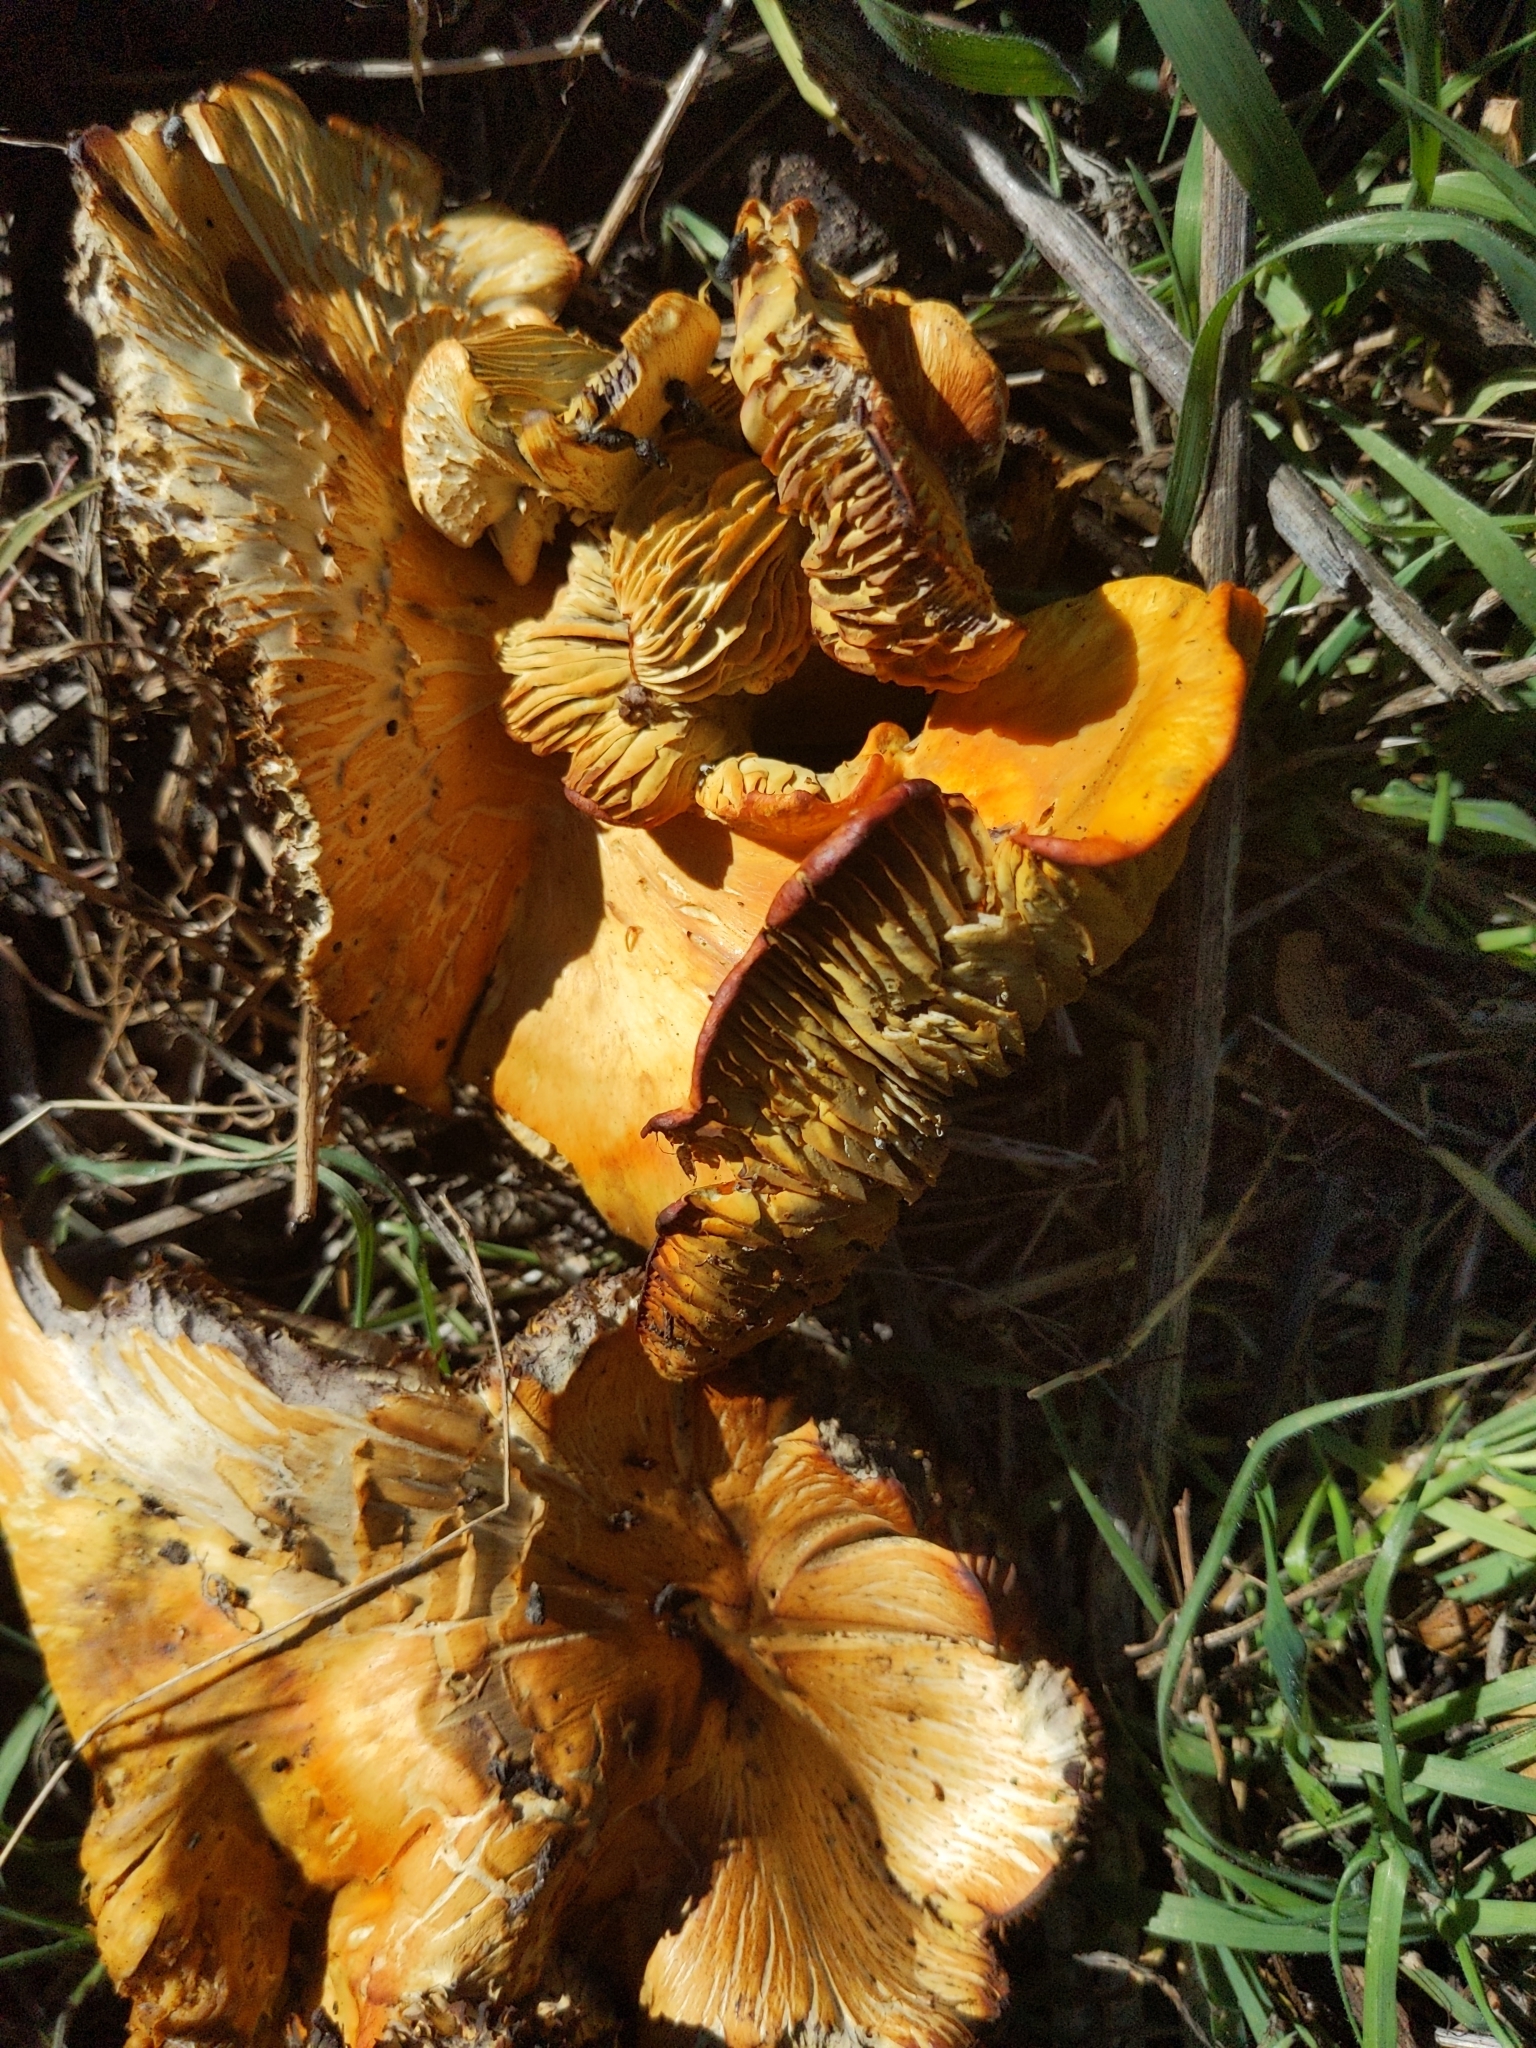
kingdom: Fungi
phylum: Basidiomycota
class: Agaricomycetes
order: Agaricales
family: Omphalotaceae
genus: Omphalotus
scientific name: Omphalotus olivascens
